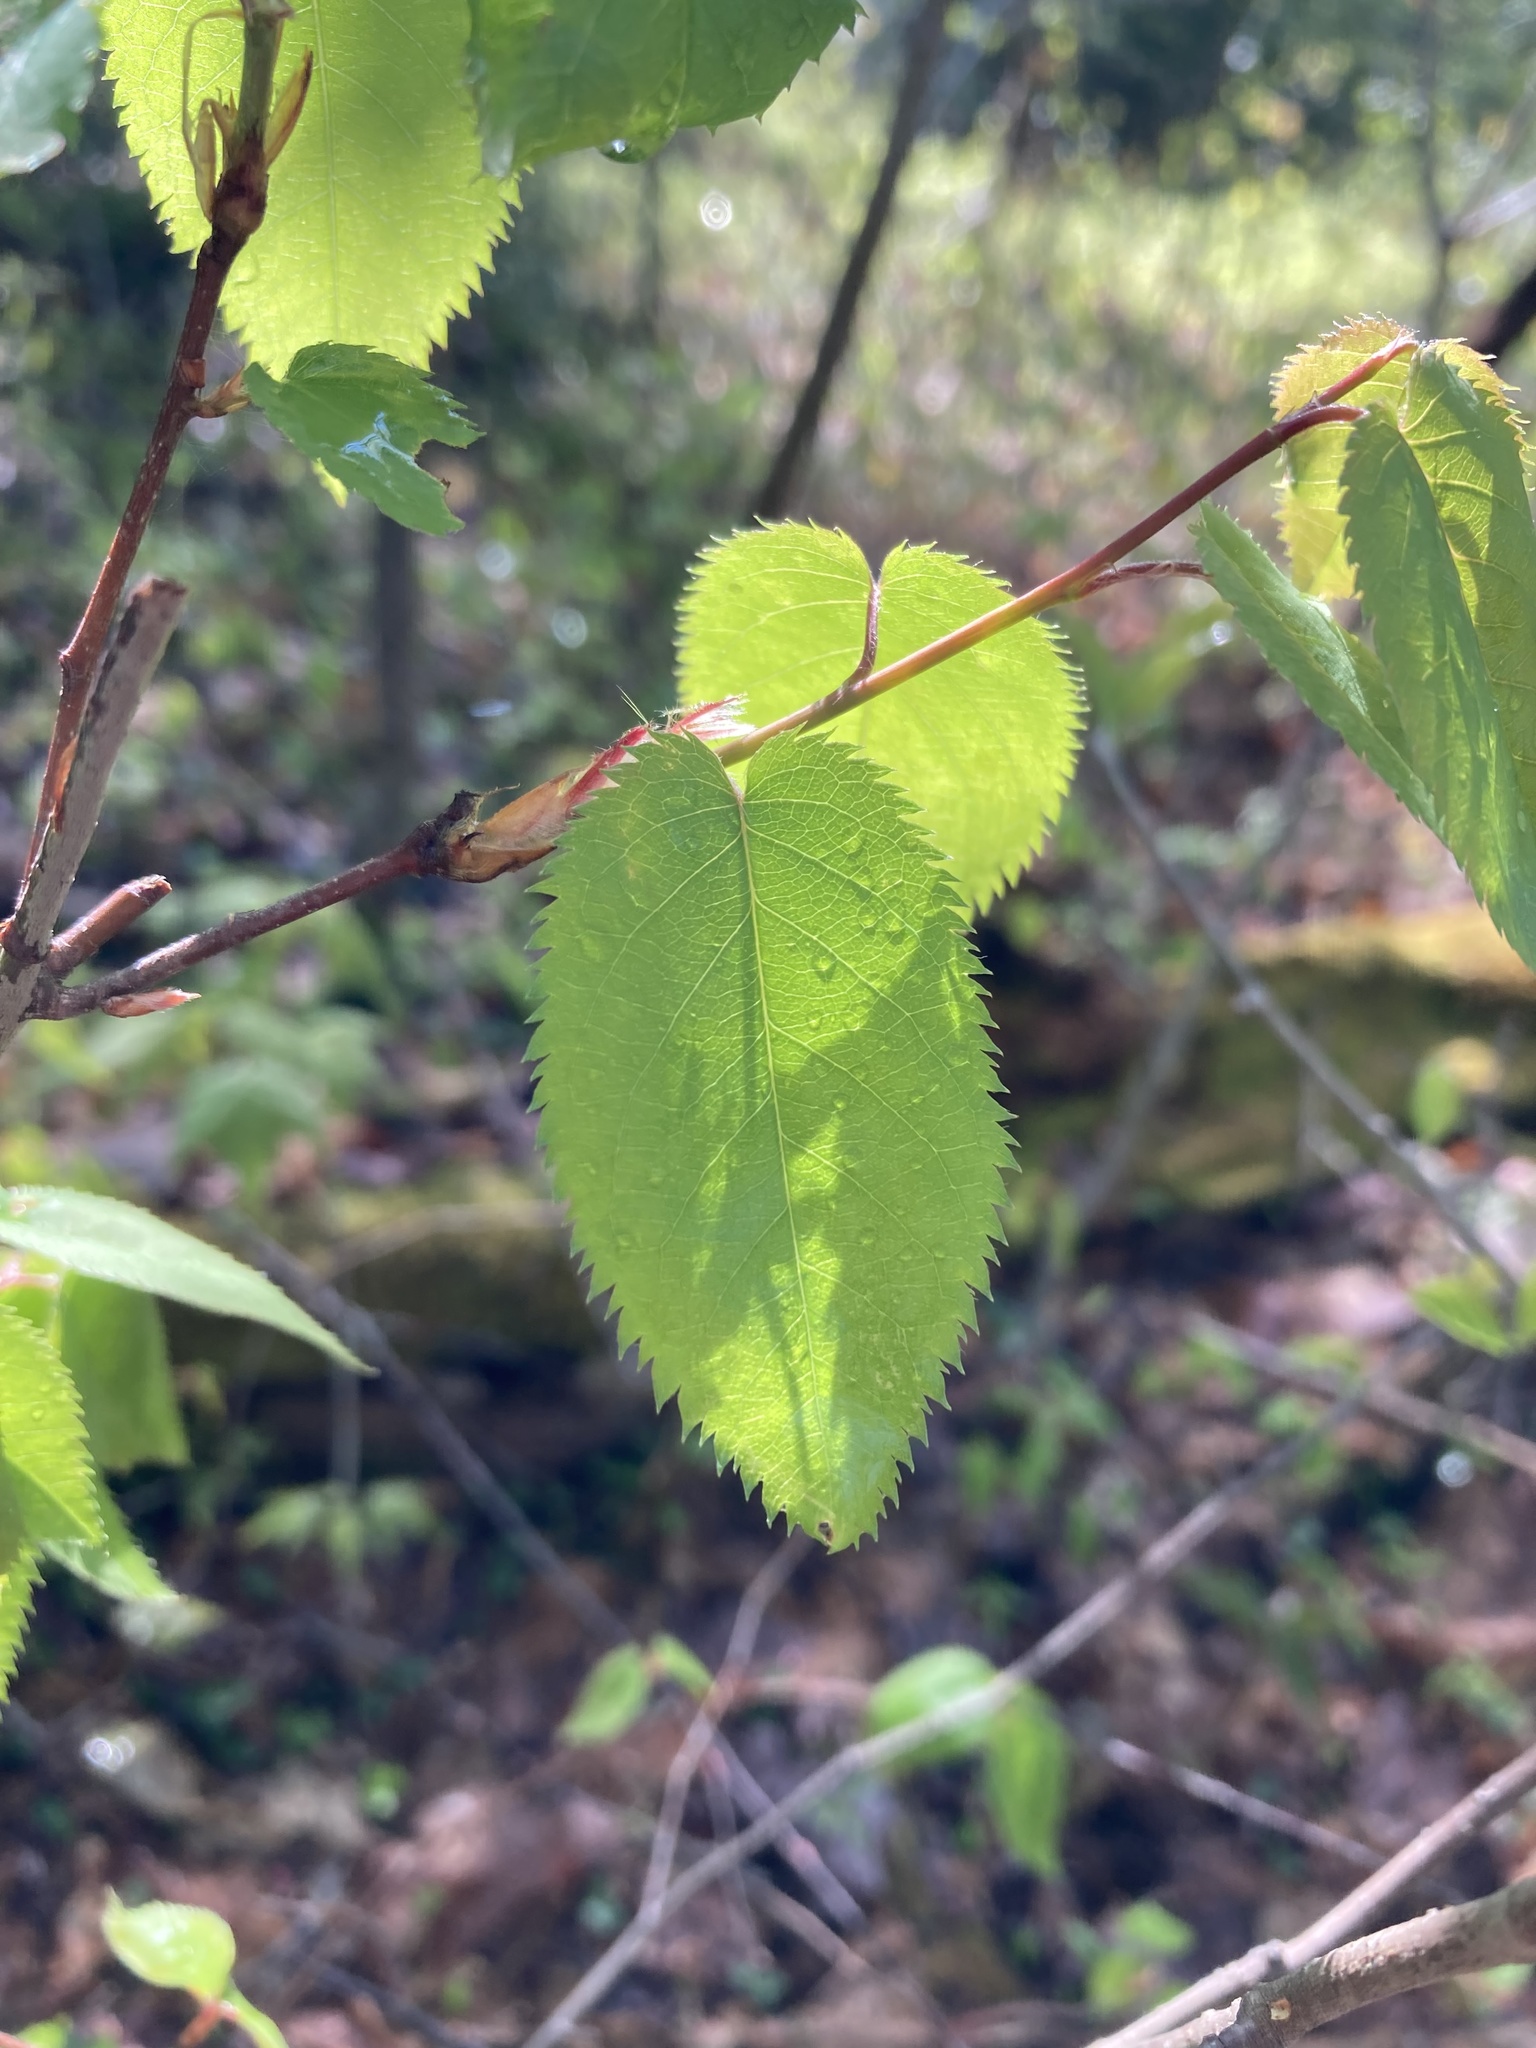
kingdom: Plantae
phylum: Tracheophyta
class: Magnoliopsida
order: Rosales
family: Rosaceae
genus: Amelanchier
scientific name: Amelanchier laevis
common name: Allegheny serviceberry
